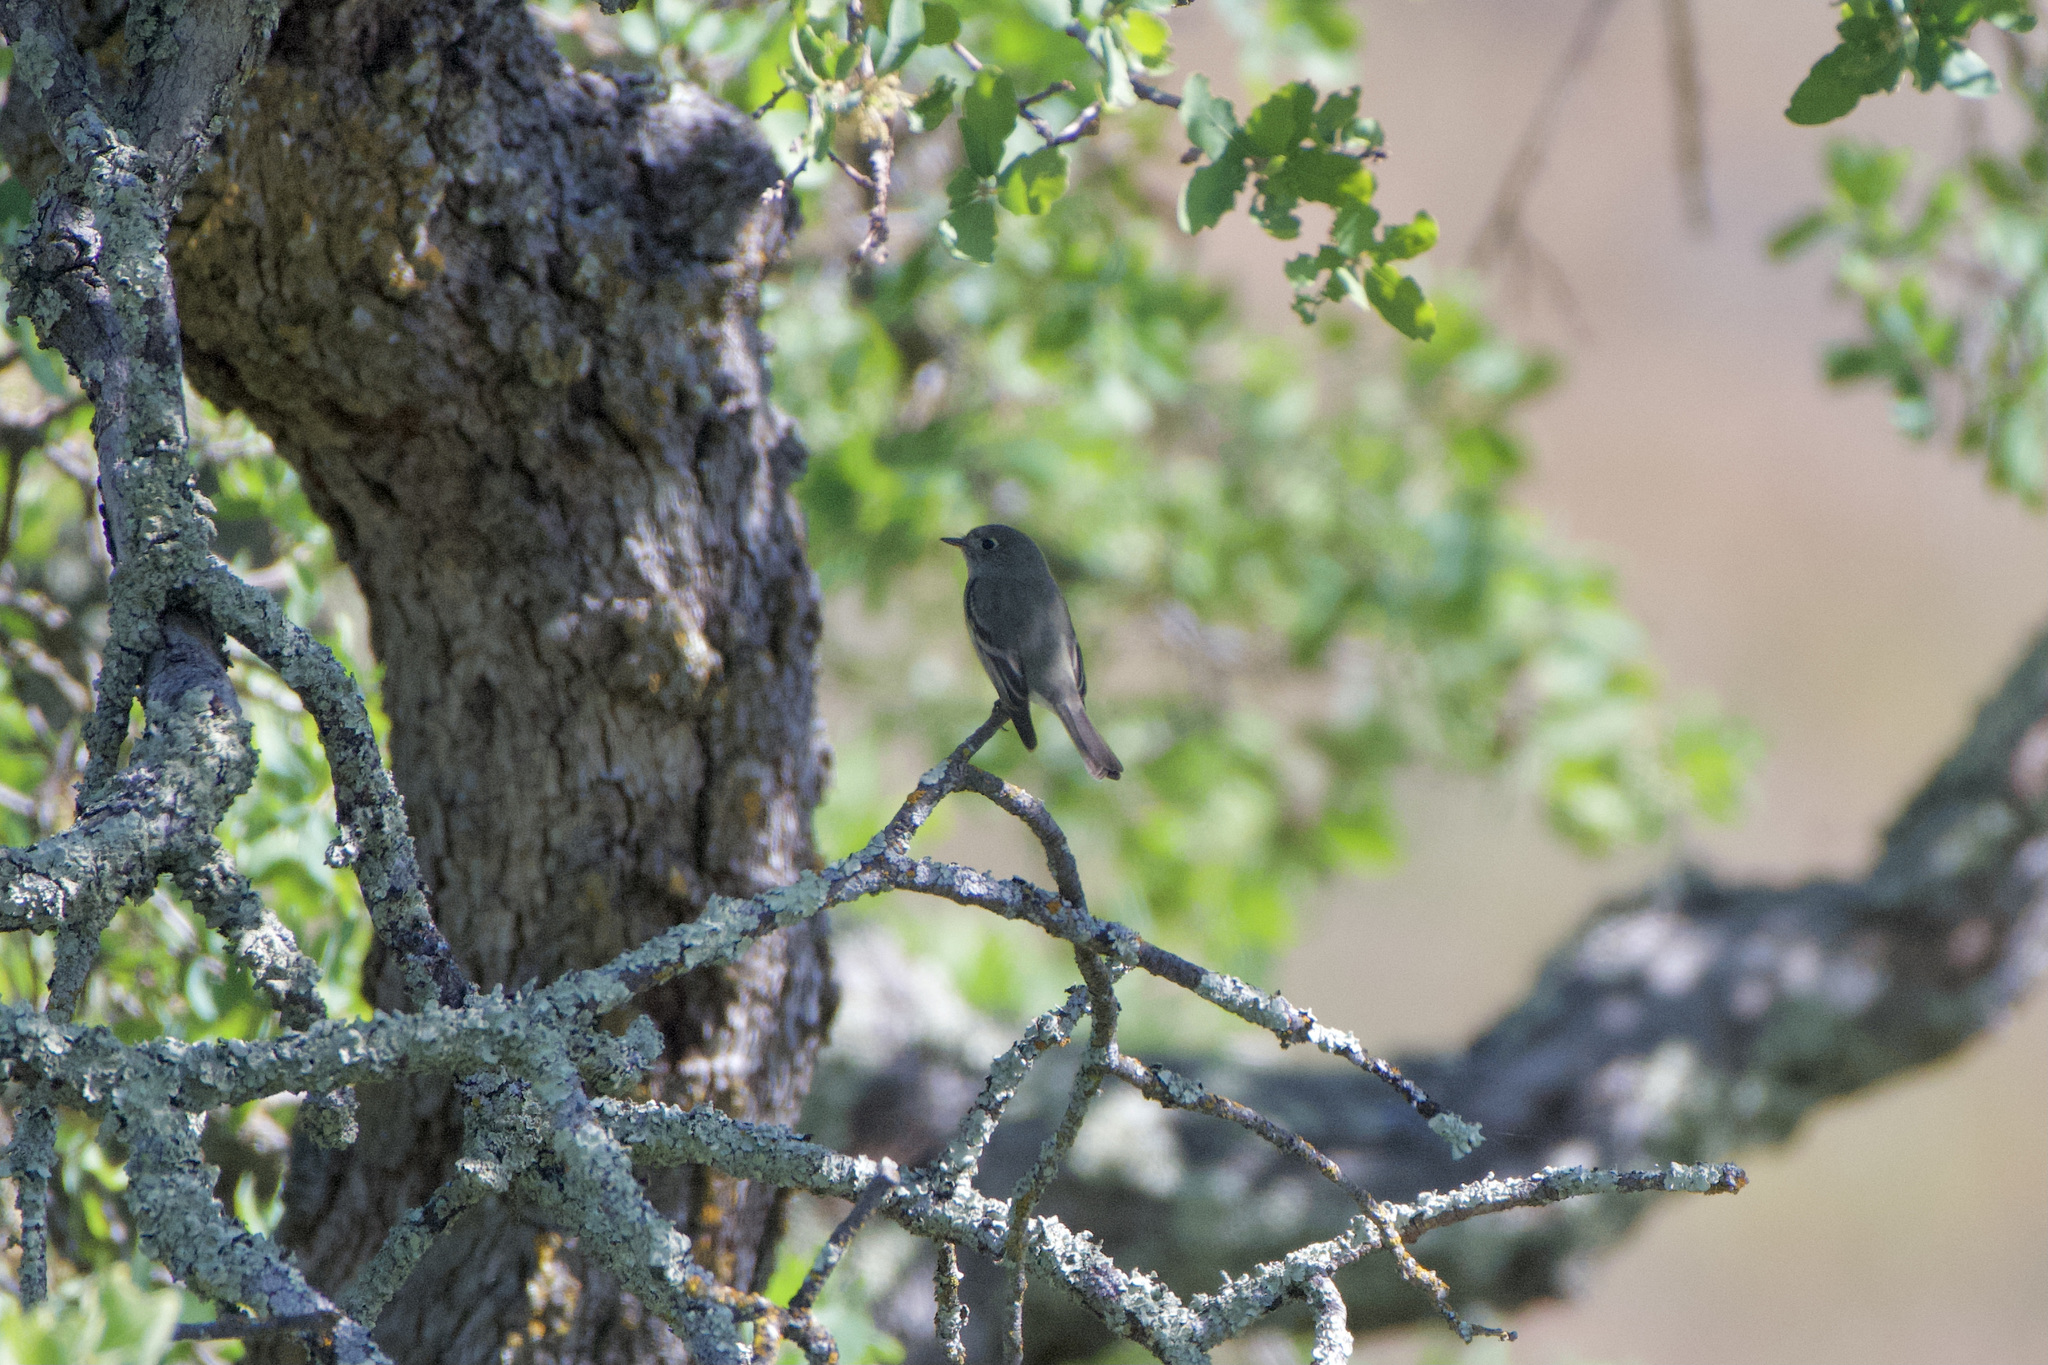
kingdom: Animalia
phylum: Chordata
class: Aves
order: Passeriformes
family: Tyrannidae
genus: Empidonax
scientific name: Empidonax hammondii
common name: Hammond's flycatcher
